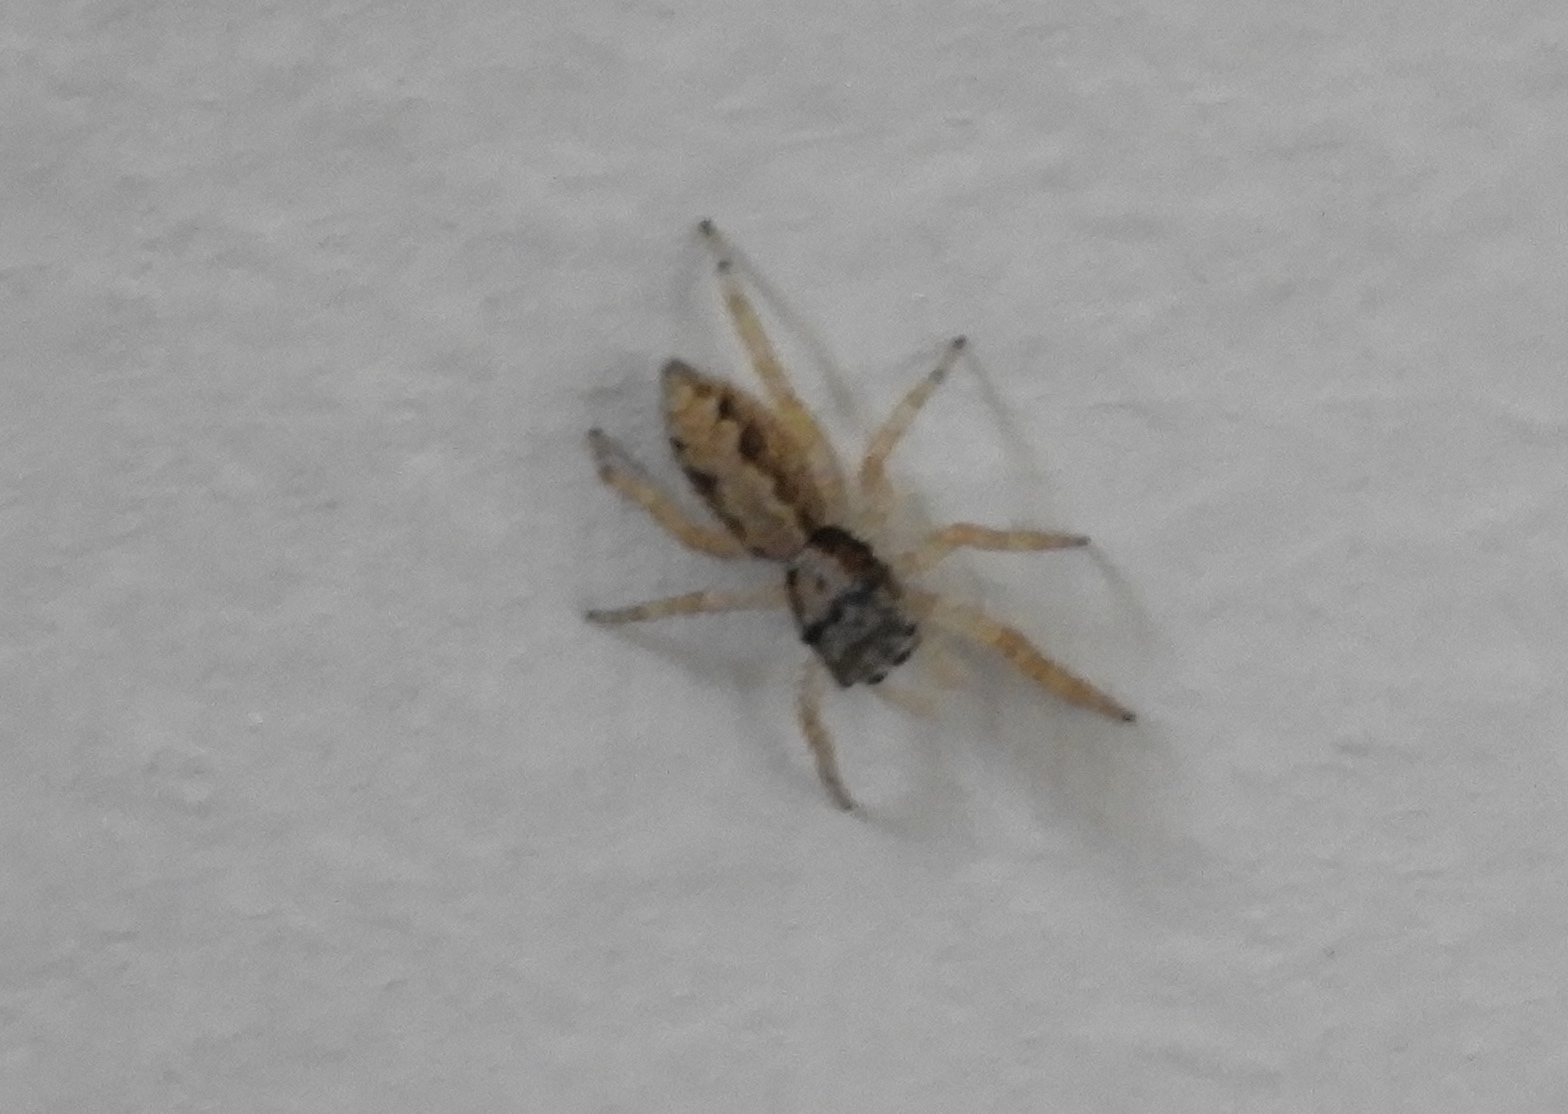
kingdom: Animalia
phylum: Arthropoda
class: Arachnida
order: Araneae
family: Salticidae
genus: Balmaceda
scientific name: Balmaceda
